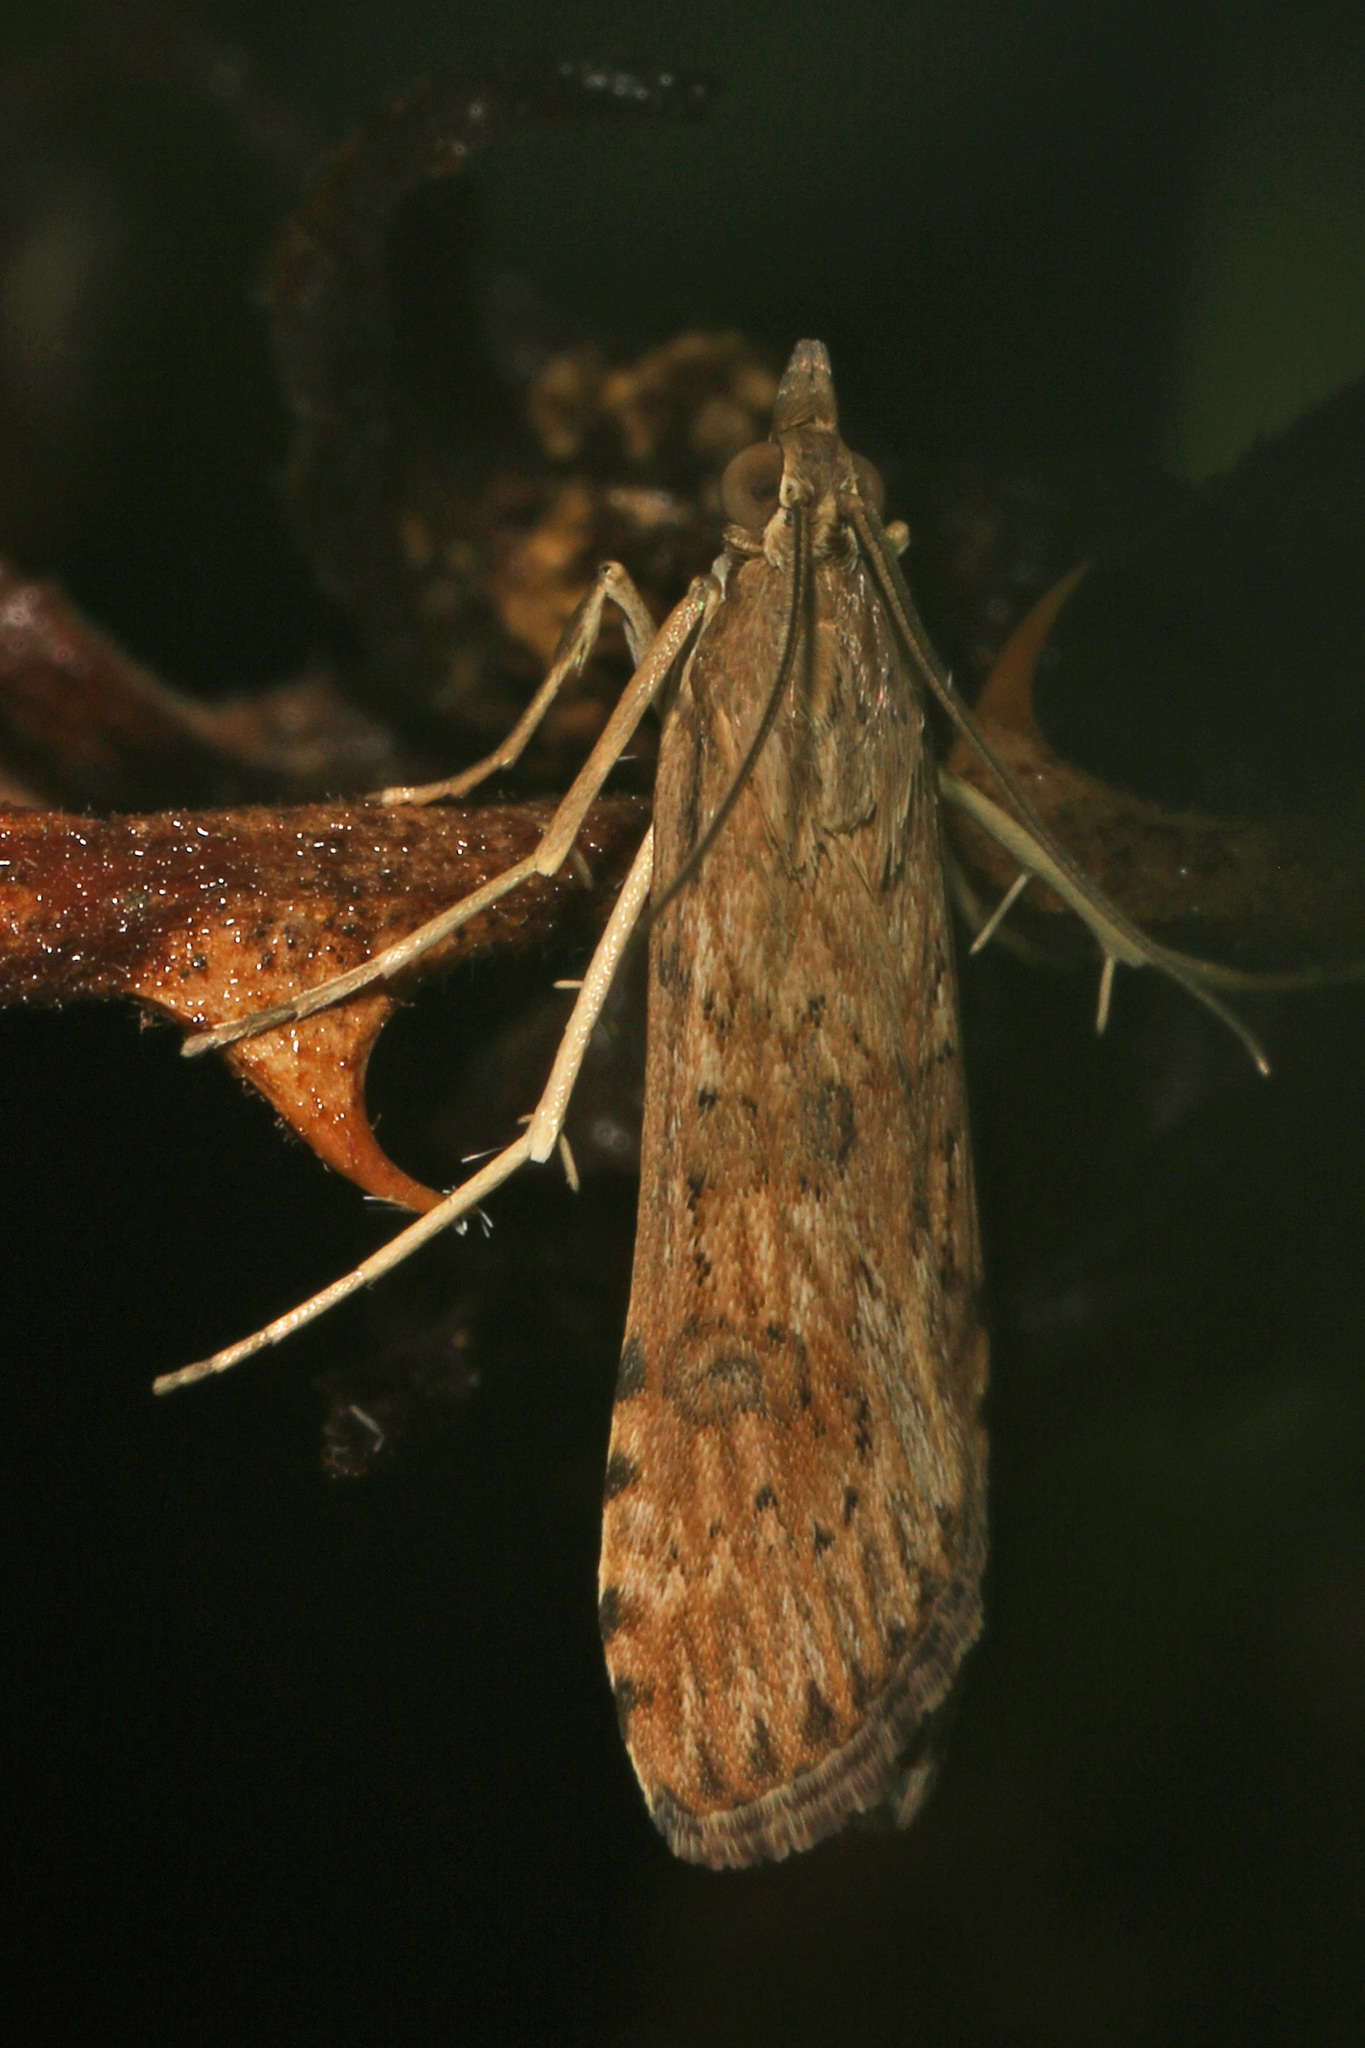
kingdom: Animalia
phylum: Arthropoda
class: Insecta
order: Lepidoptera
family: Crambidae
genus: Nomophila
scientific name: Nomophila nearctica
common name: American rush veneer
